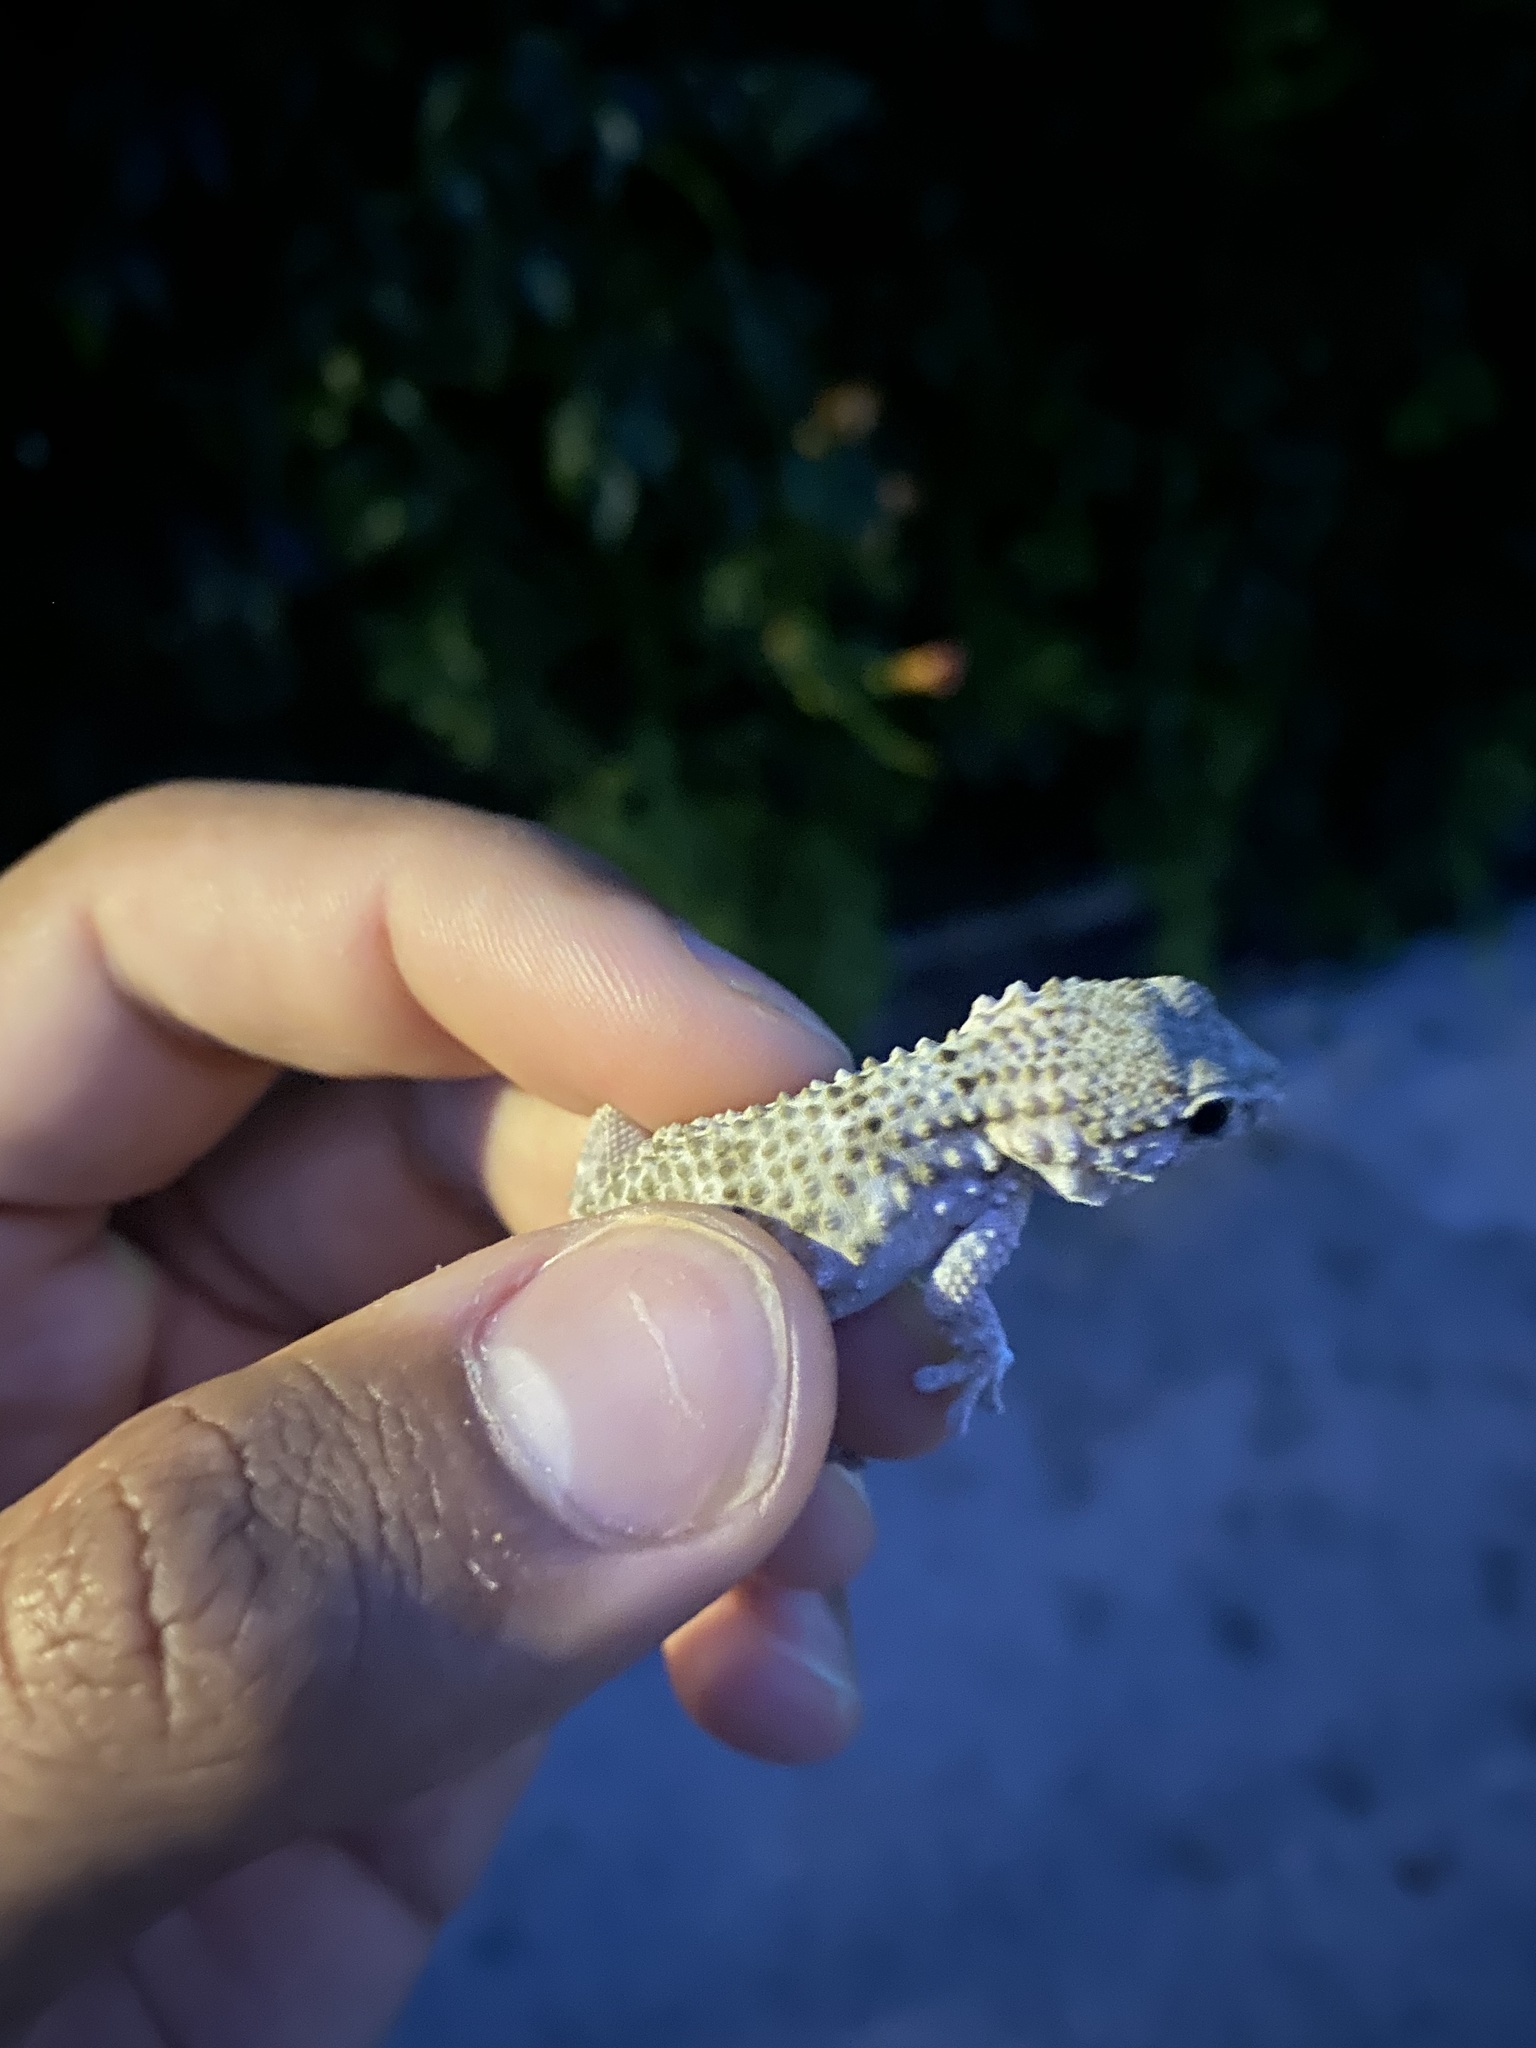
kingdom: Animalia
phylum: Chordata
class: Squamata
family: Phyllodactylidae
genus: Tarentola
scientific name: Tarentola mauritanica
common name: Moorish gecko
